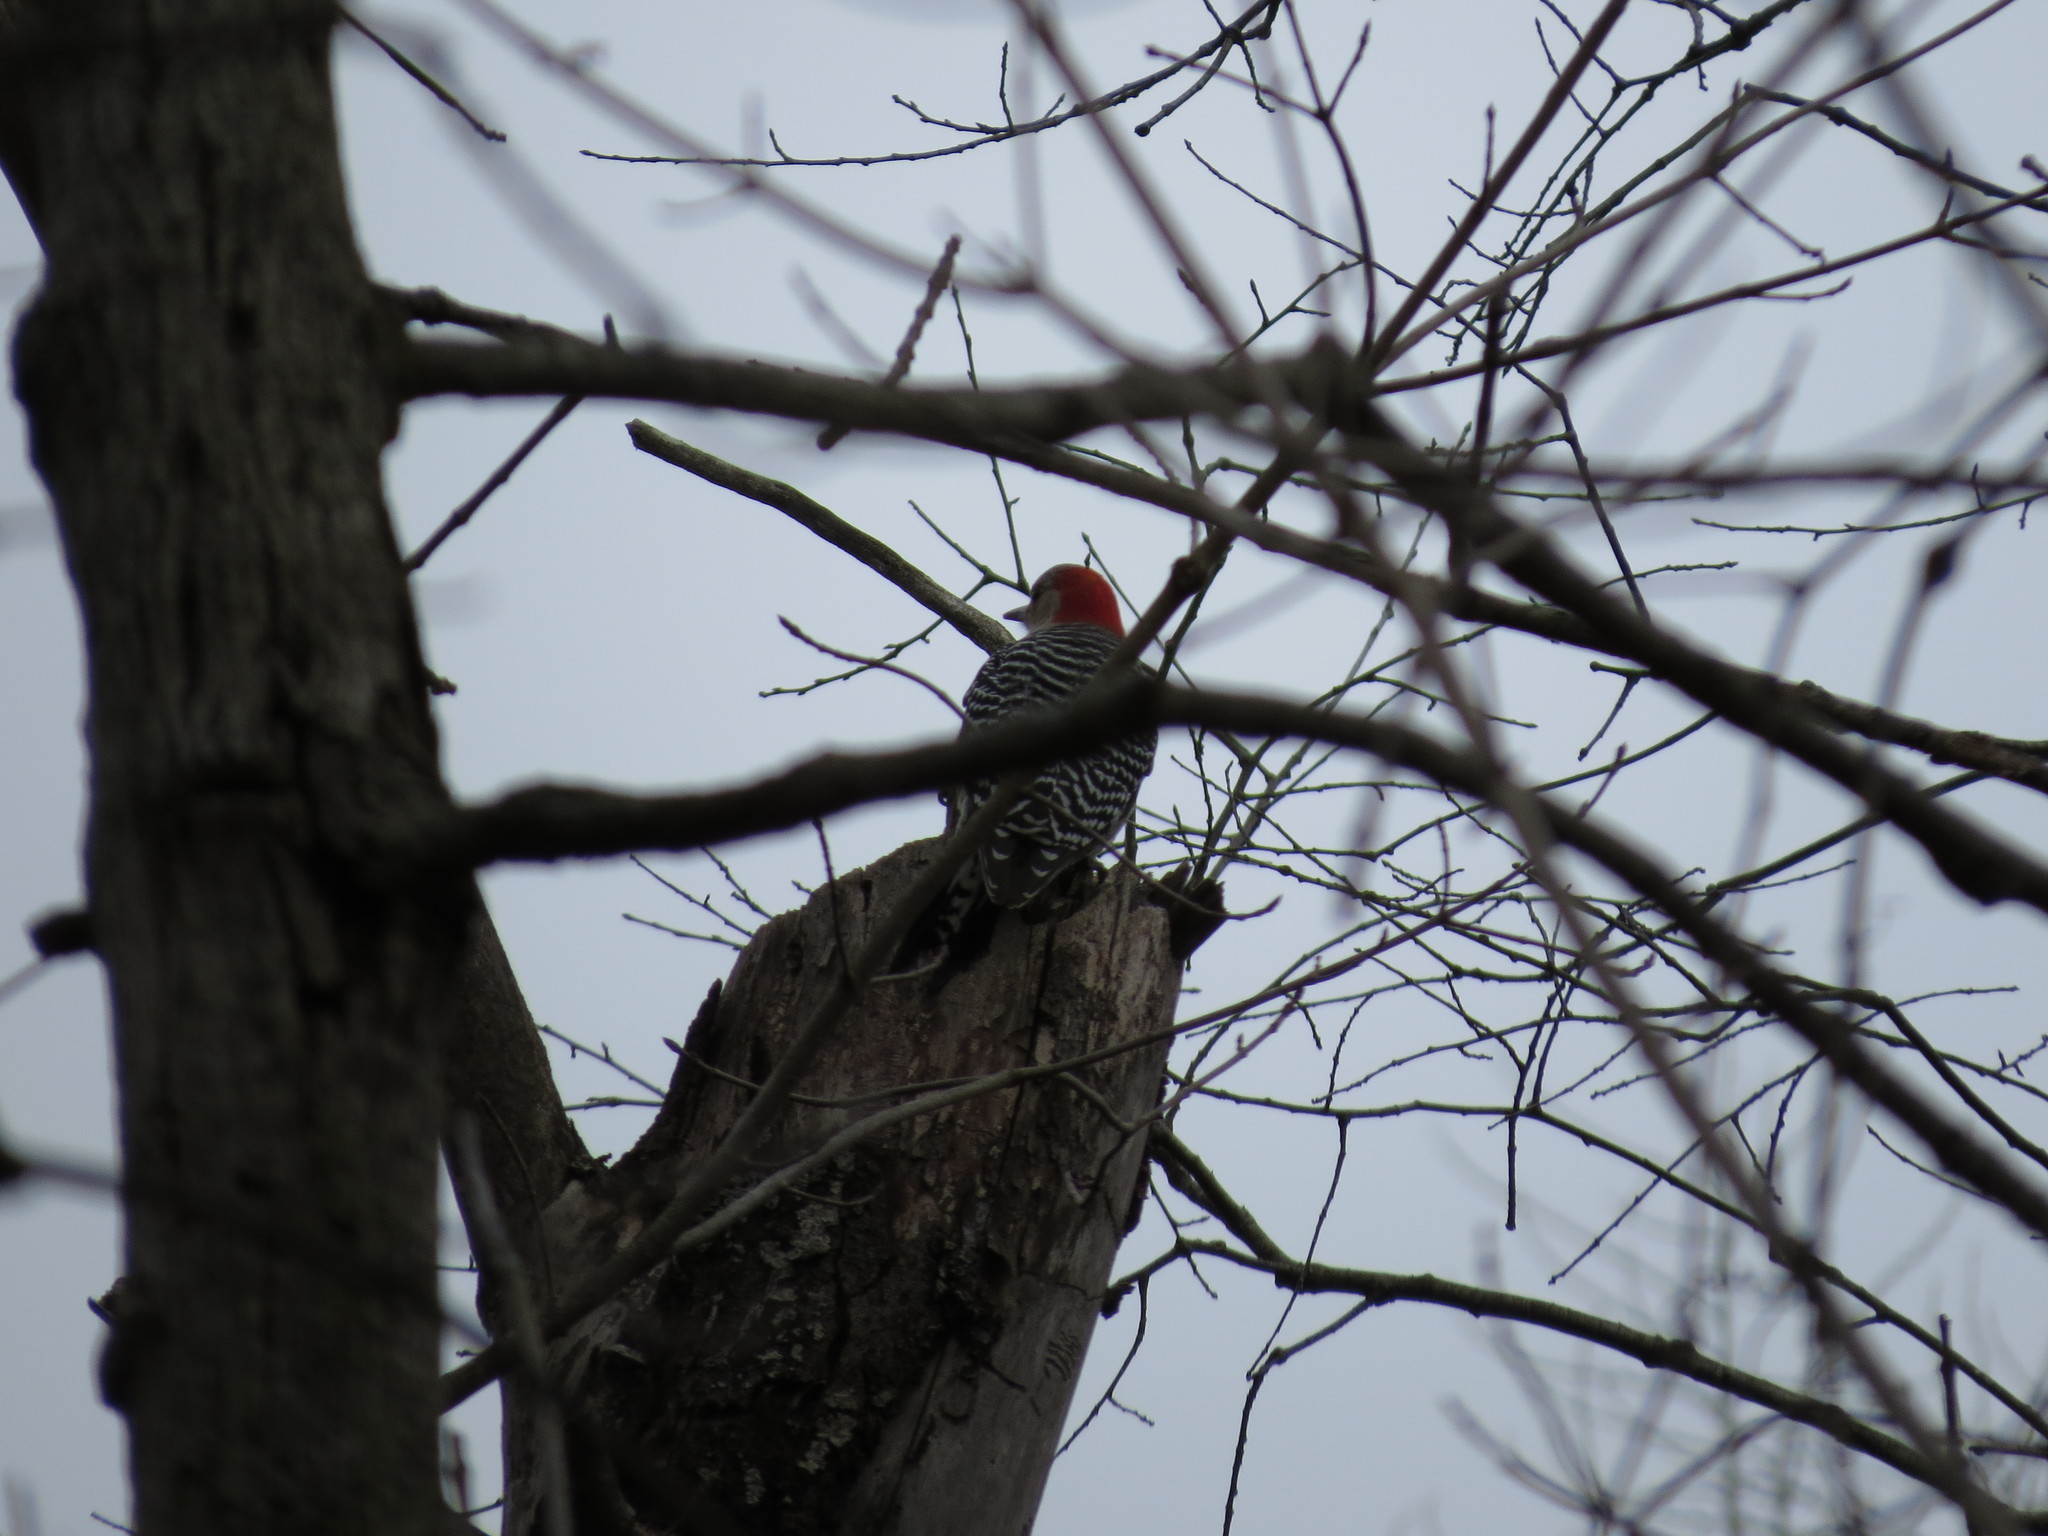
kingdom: Animalia
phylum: Chordata
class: Aves
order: Piciformes
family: Picidae
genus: Melanerpes
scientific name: Melanerpes carolinus
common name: Red-bellied woodpecker
